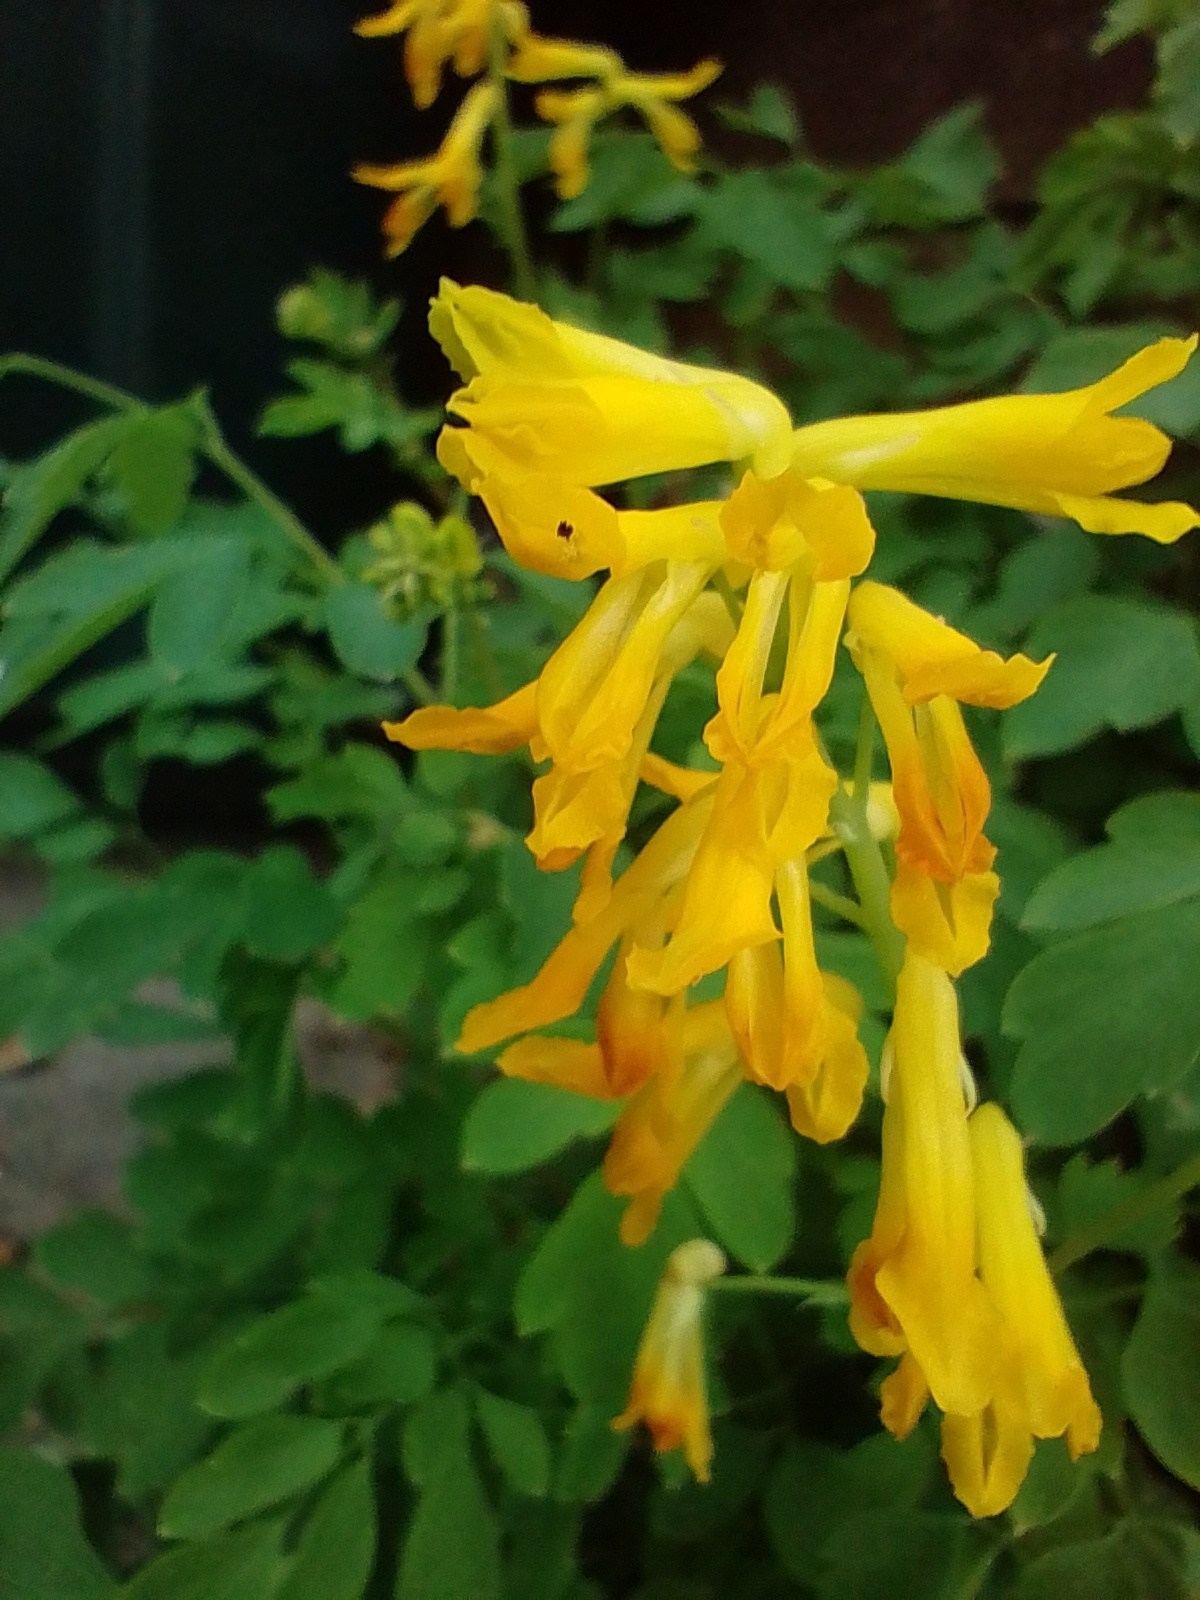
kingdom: Plantae
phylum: Tracheophyta
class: Magnoliopsida
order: Ranunculales
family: Papaveraceae
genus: Pseudofumaria
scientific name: Pseudofumaria lutea
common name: Yellow corydalis
